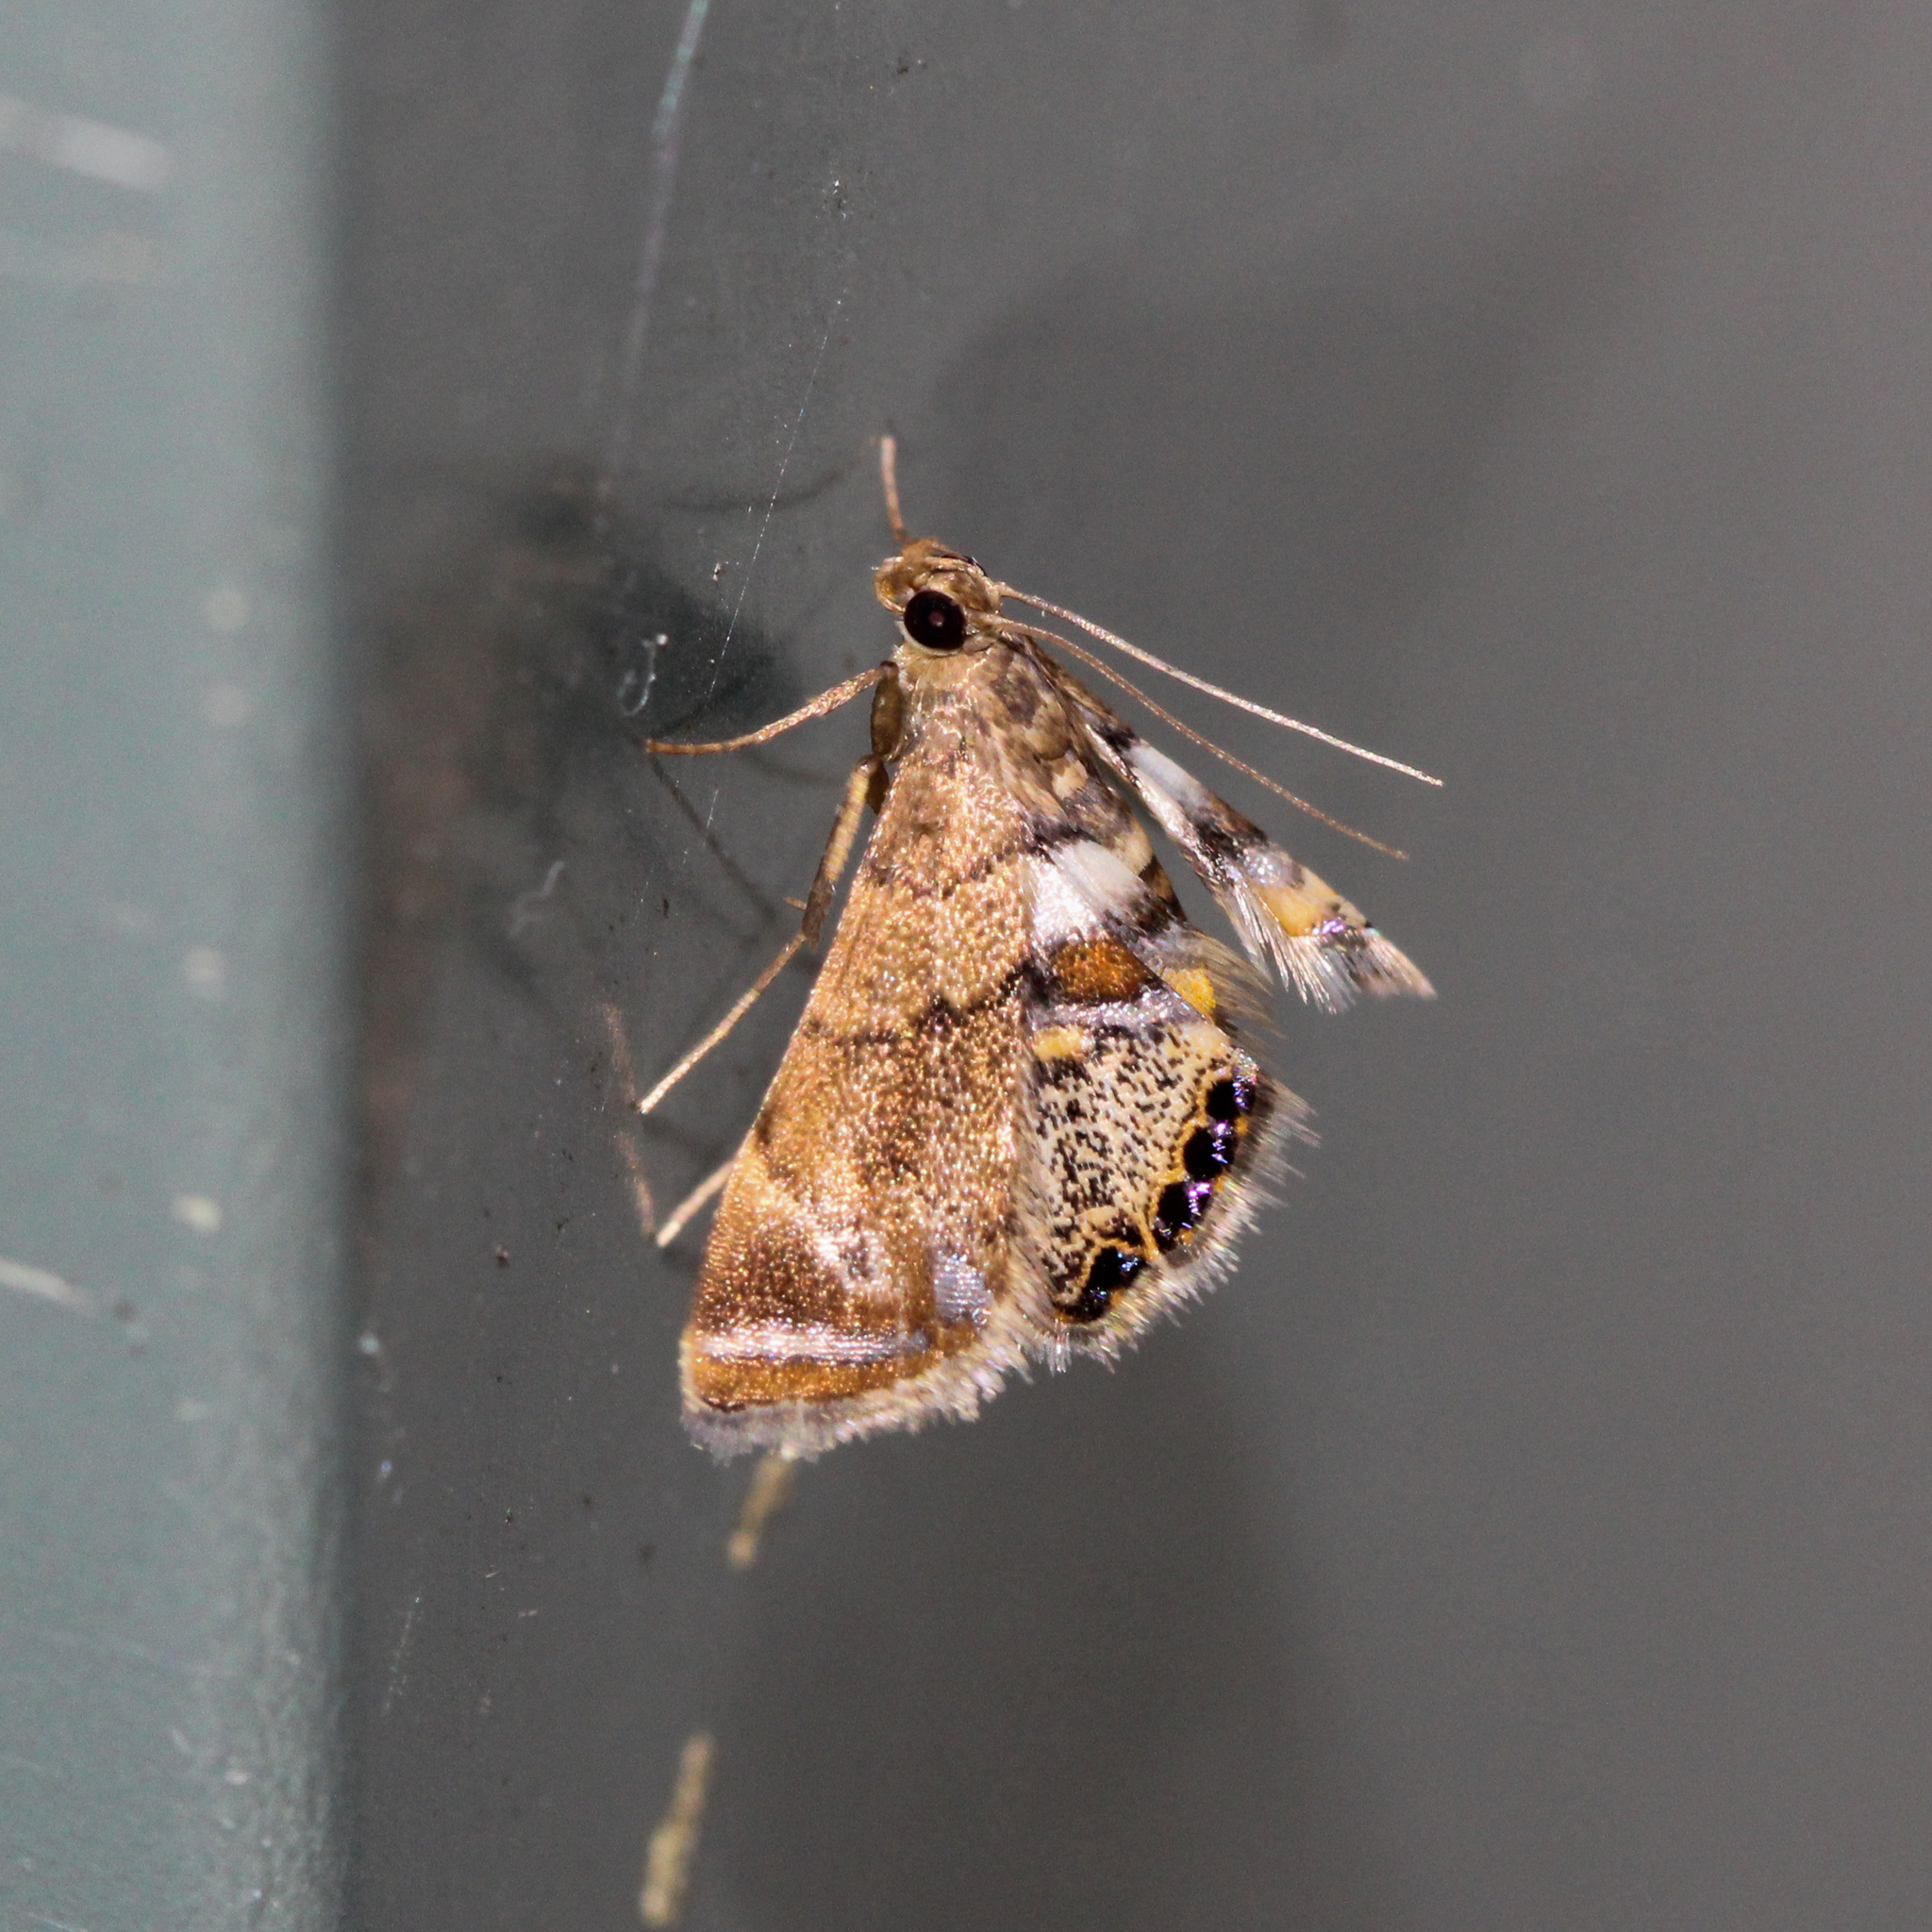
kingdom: Animalia
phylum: Arthropoda
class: Insecta
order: Lepidoptera
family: Crambidae
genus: Neargyractis
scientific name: Neargyractis slossonalis
